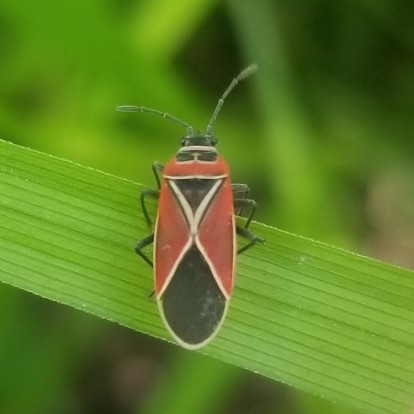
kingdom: Animalia
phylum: Arthropoda
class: Insecta
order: Hemiptera
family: Lygaeidae
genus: Neacoryphus
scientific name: Neacoryphus bicrucis
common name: Lygaeid bug
